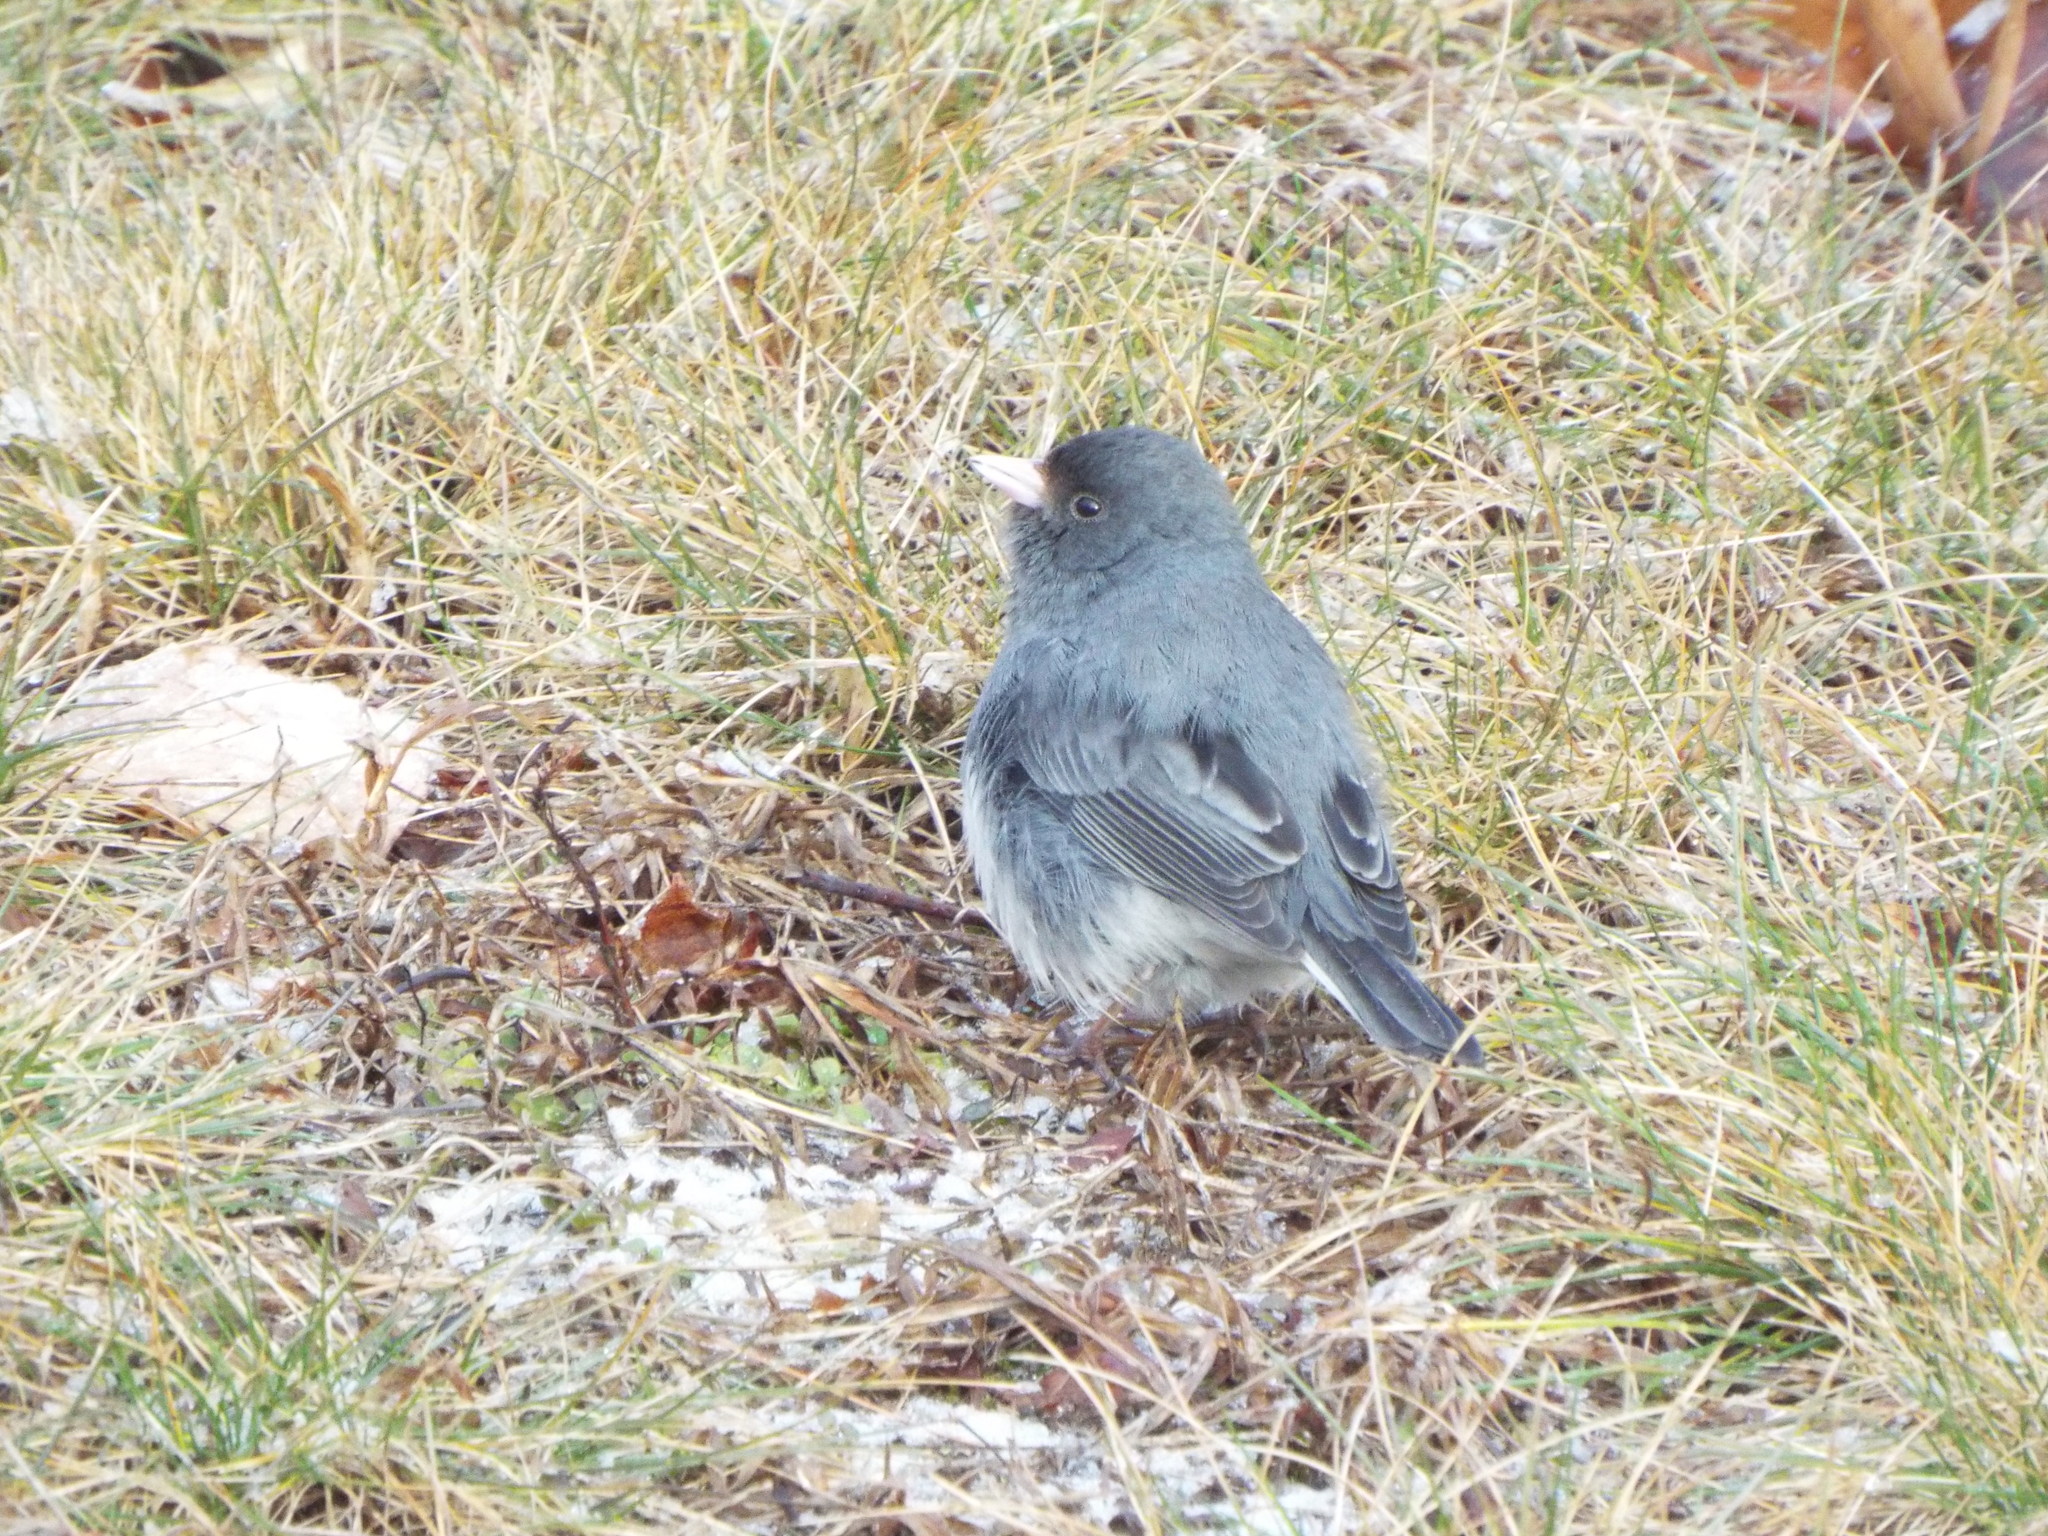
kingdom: Animalia
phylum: Chordata
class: Aves
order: Passeriformes
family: Passerellidae
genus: Junco
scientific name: Junco hyemalis
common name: Dark-eyed junco
